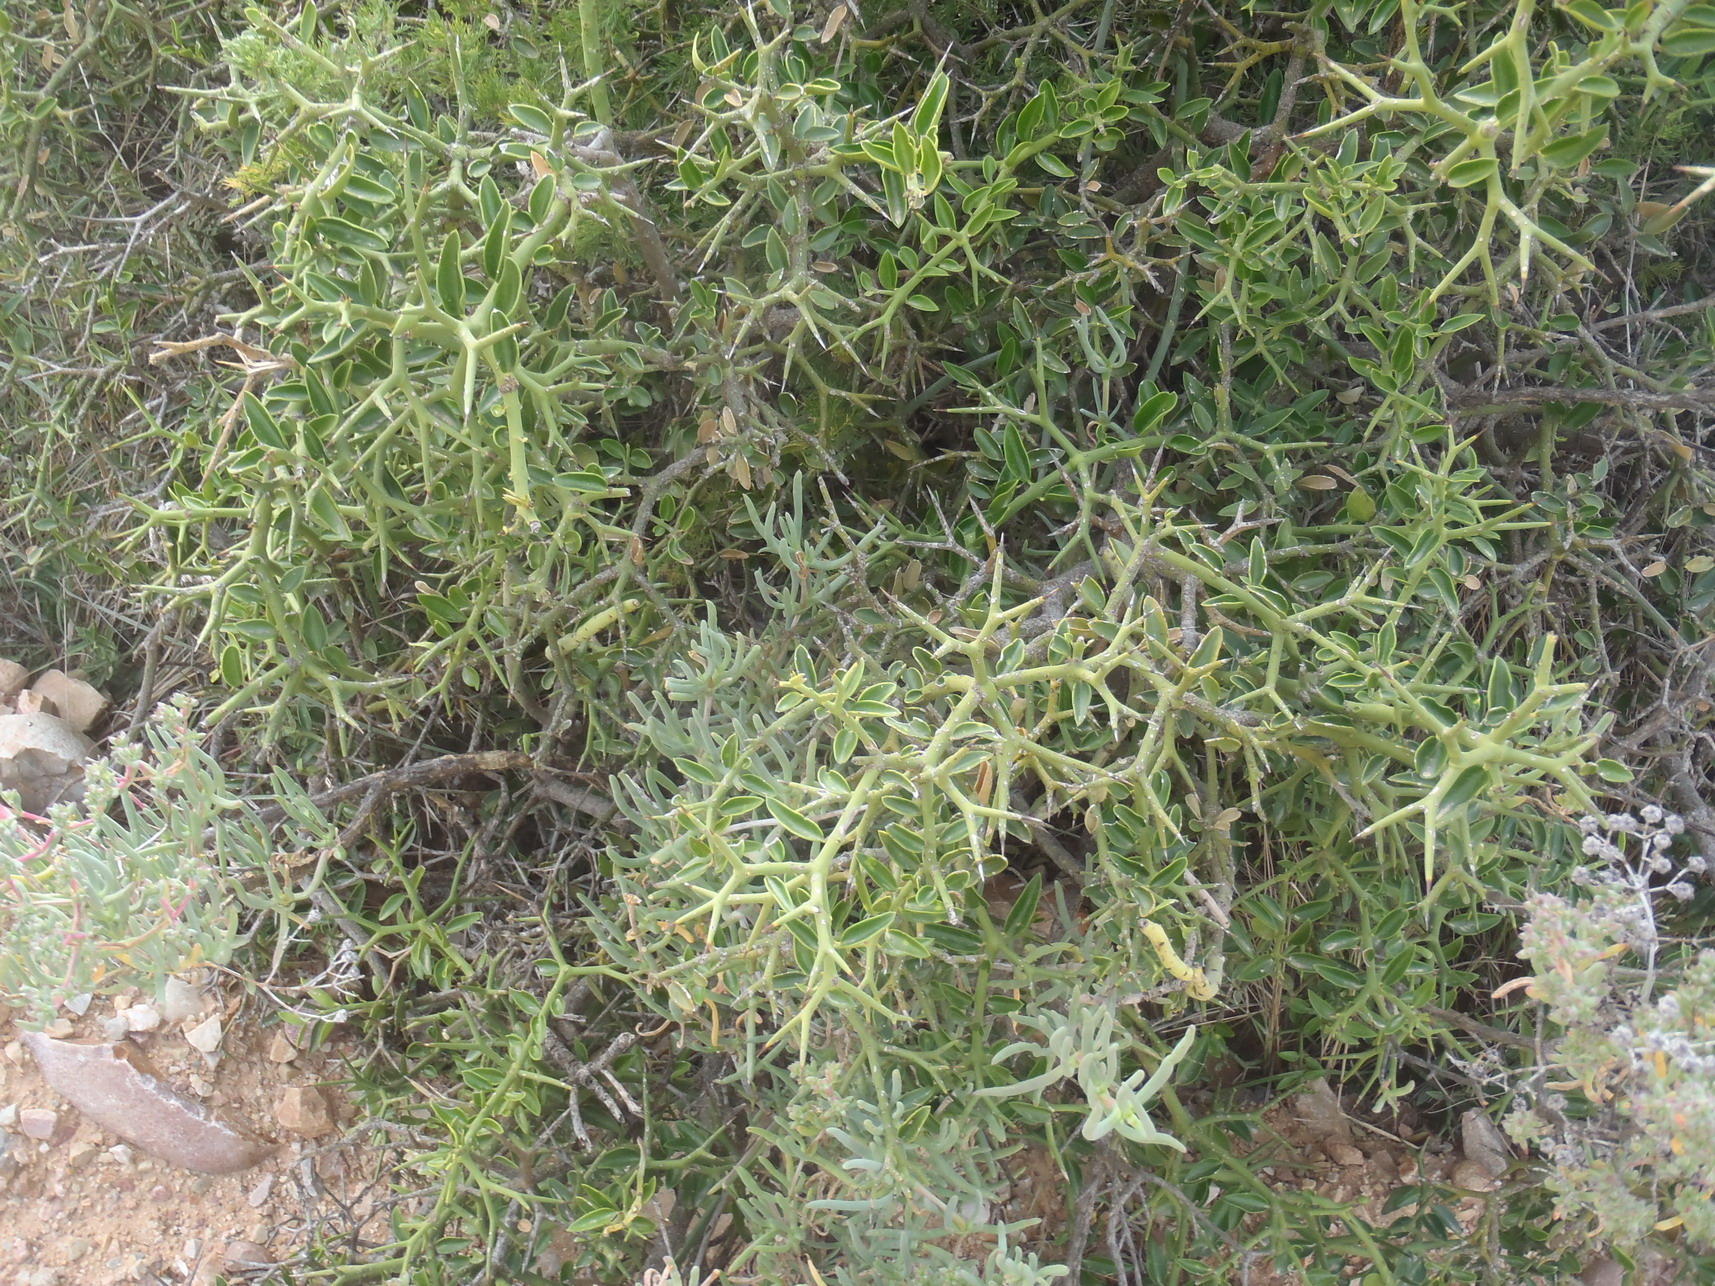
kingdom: Plantae
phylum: Tracheophyta
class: Magnoliopsida
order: Gentianales
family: Apocynaceae
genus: Carissa
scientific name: Carissa haematocarpa
